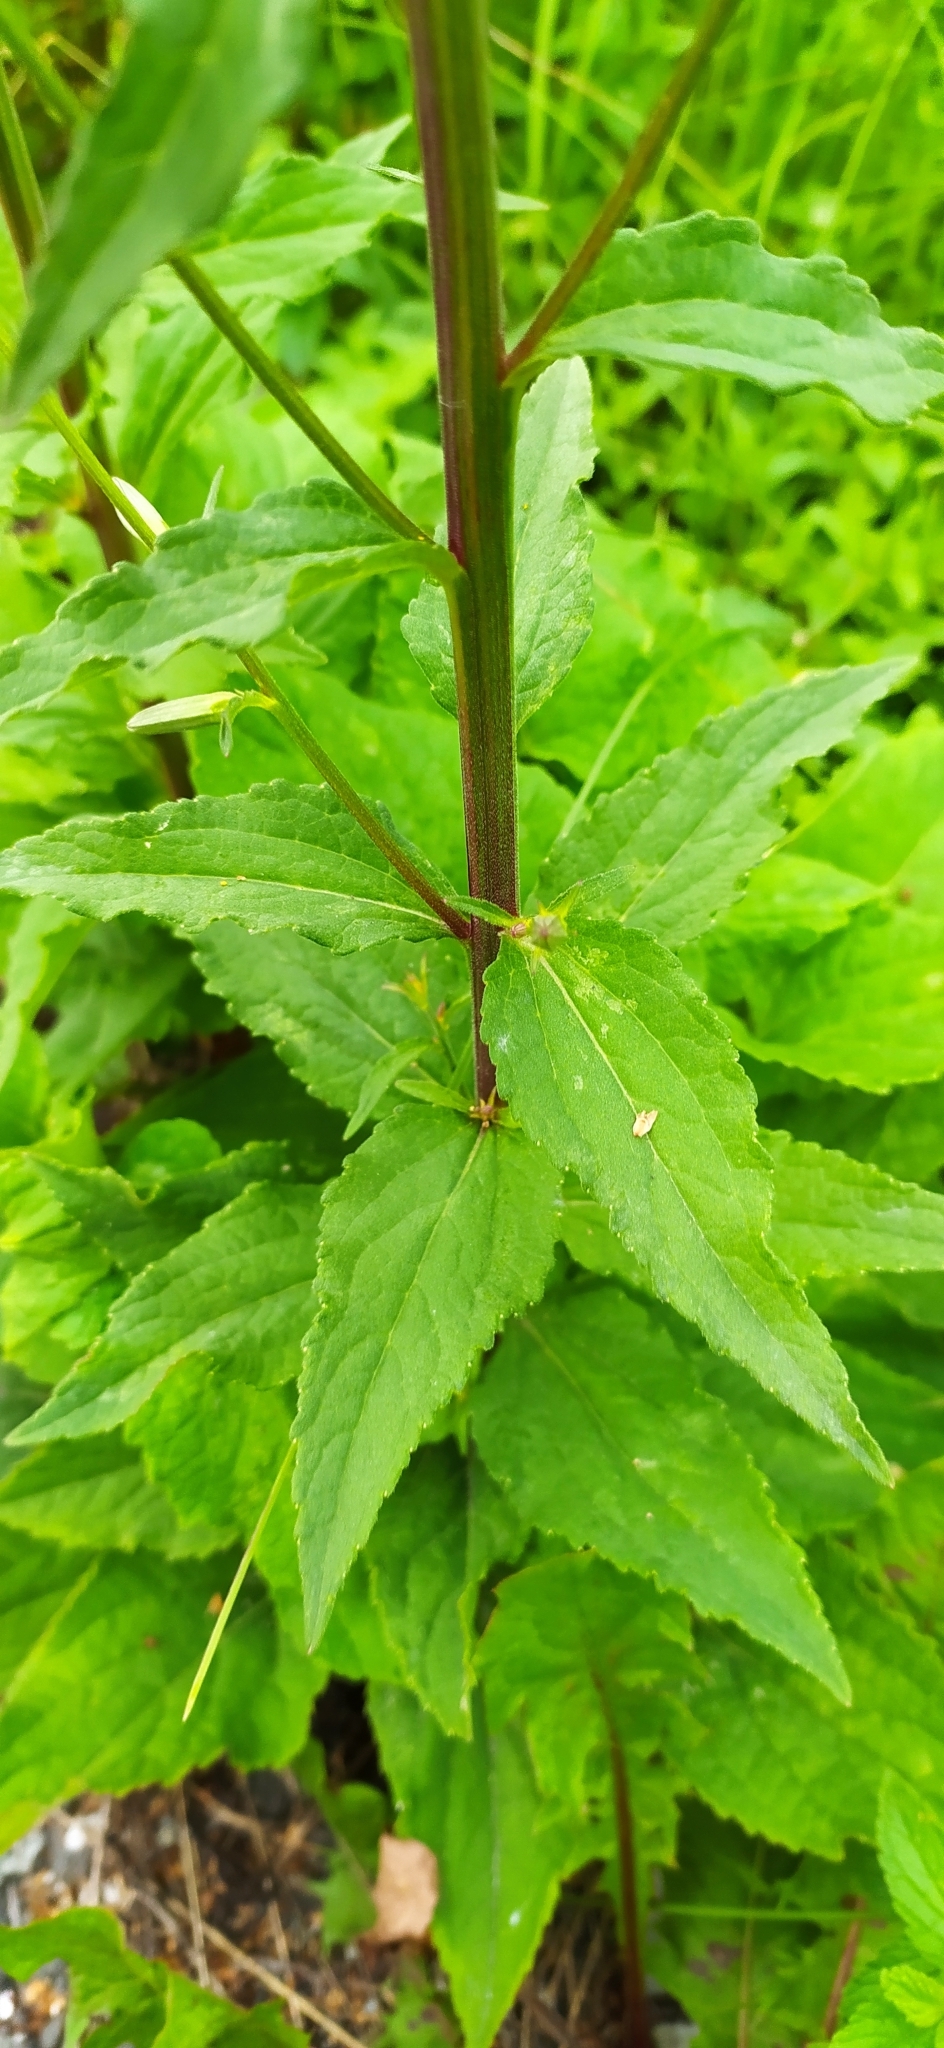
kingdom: Plantae
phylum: Tracheophyta
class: Magnoliopsida
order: Asterales
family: Campanulaceae
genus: Campanula
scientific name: Campanula rapunculoides
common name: Creeping bellflower
